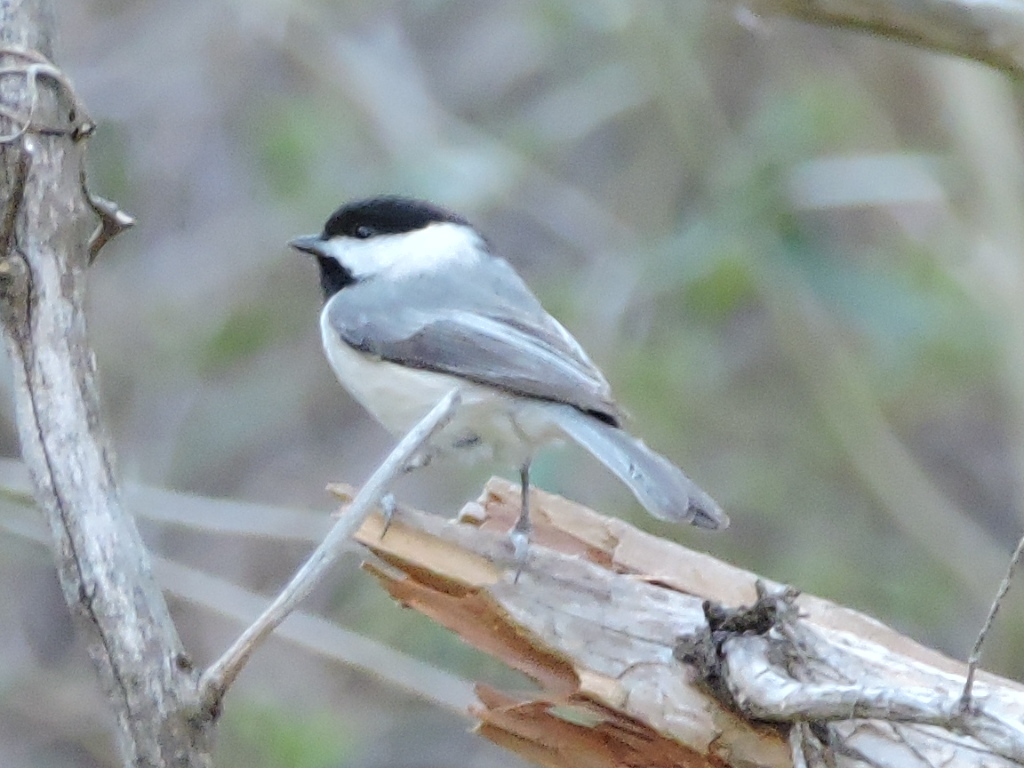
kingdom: Animalia
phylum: Chordata
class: Aves
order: Passeriformes
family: Paridae
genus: Poecile
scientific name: Poecile carolinensis
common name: Carolina chickadee
